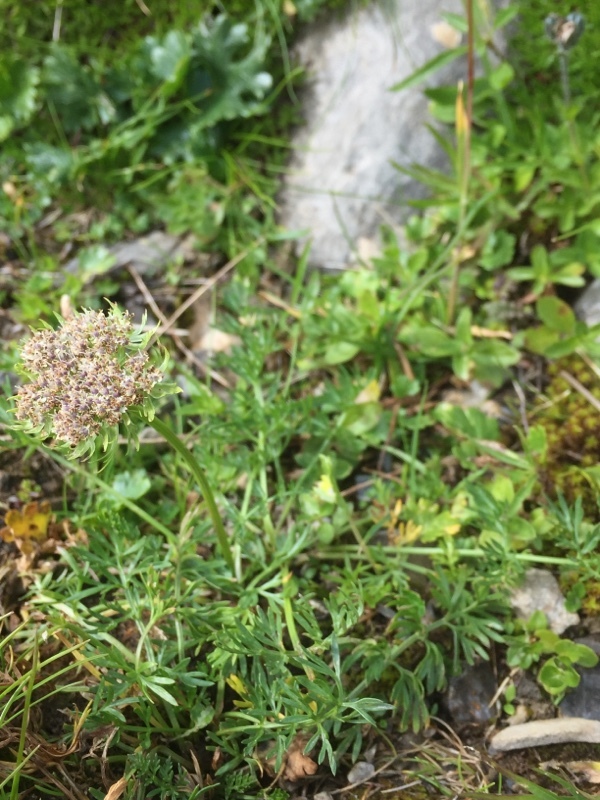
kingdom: Plantae
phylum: Tracheophyta
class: Magnoliopsida
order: Apiales
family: Apiaceae
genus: Pachypleurum
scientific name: Pachypleurum mutellinoides
